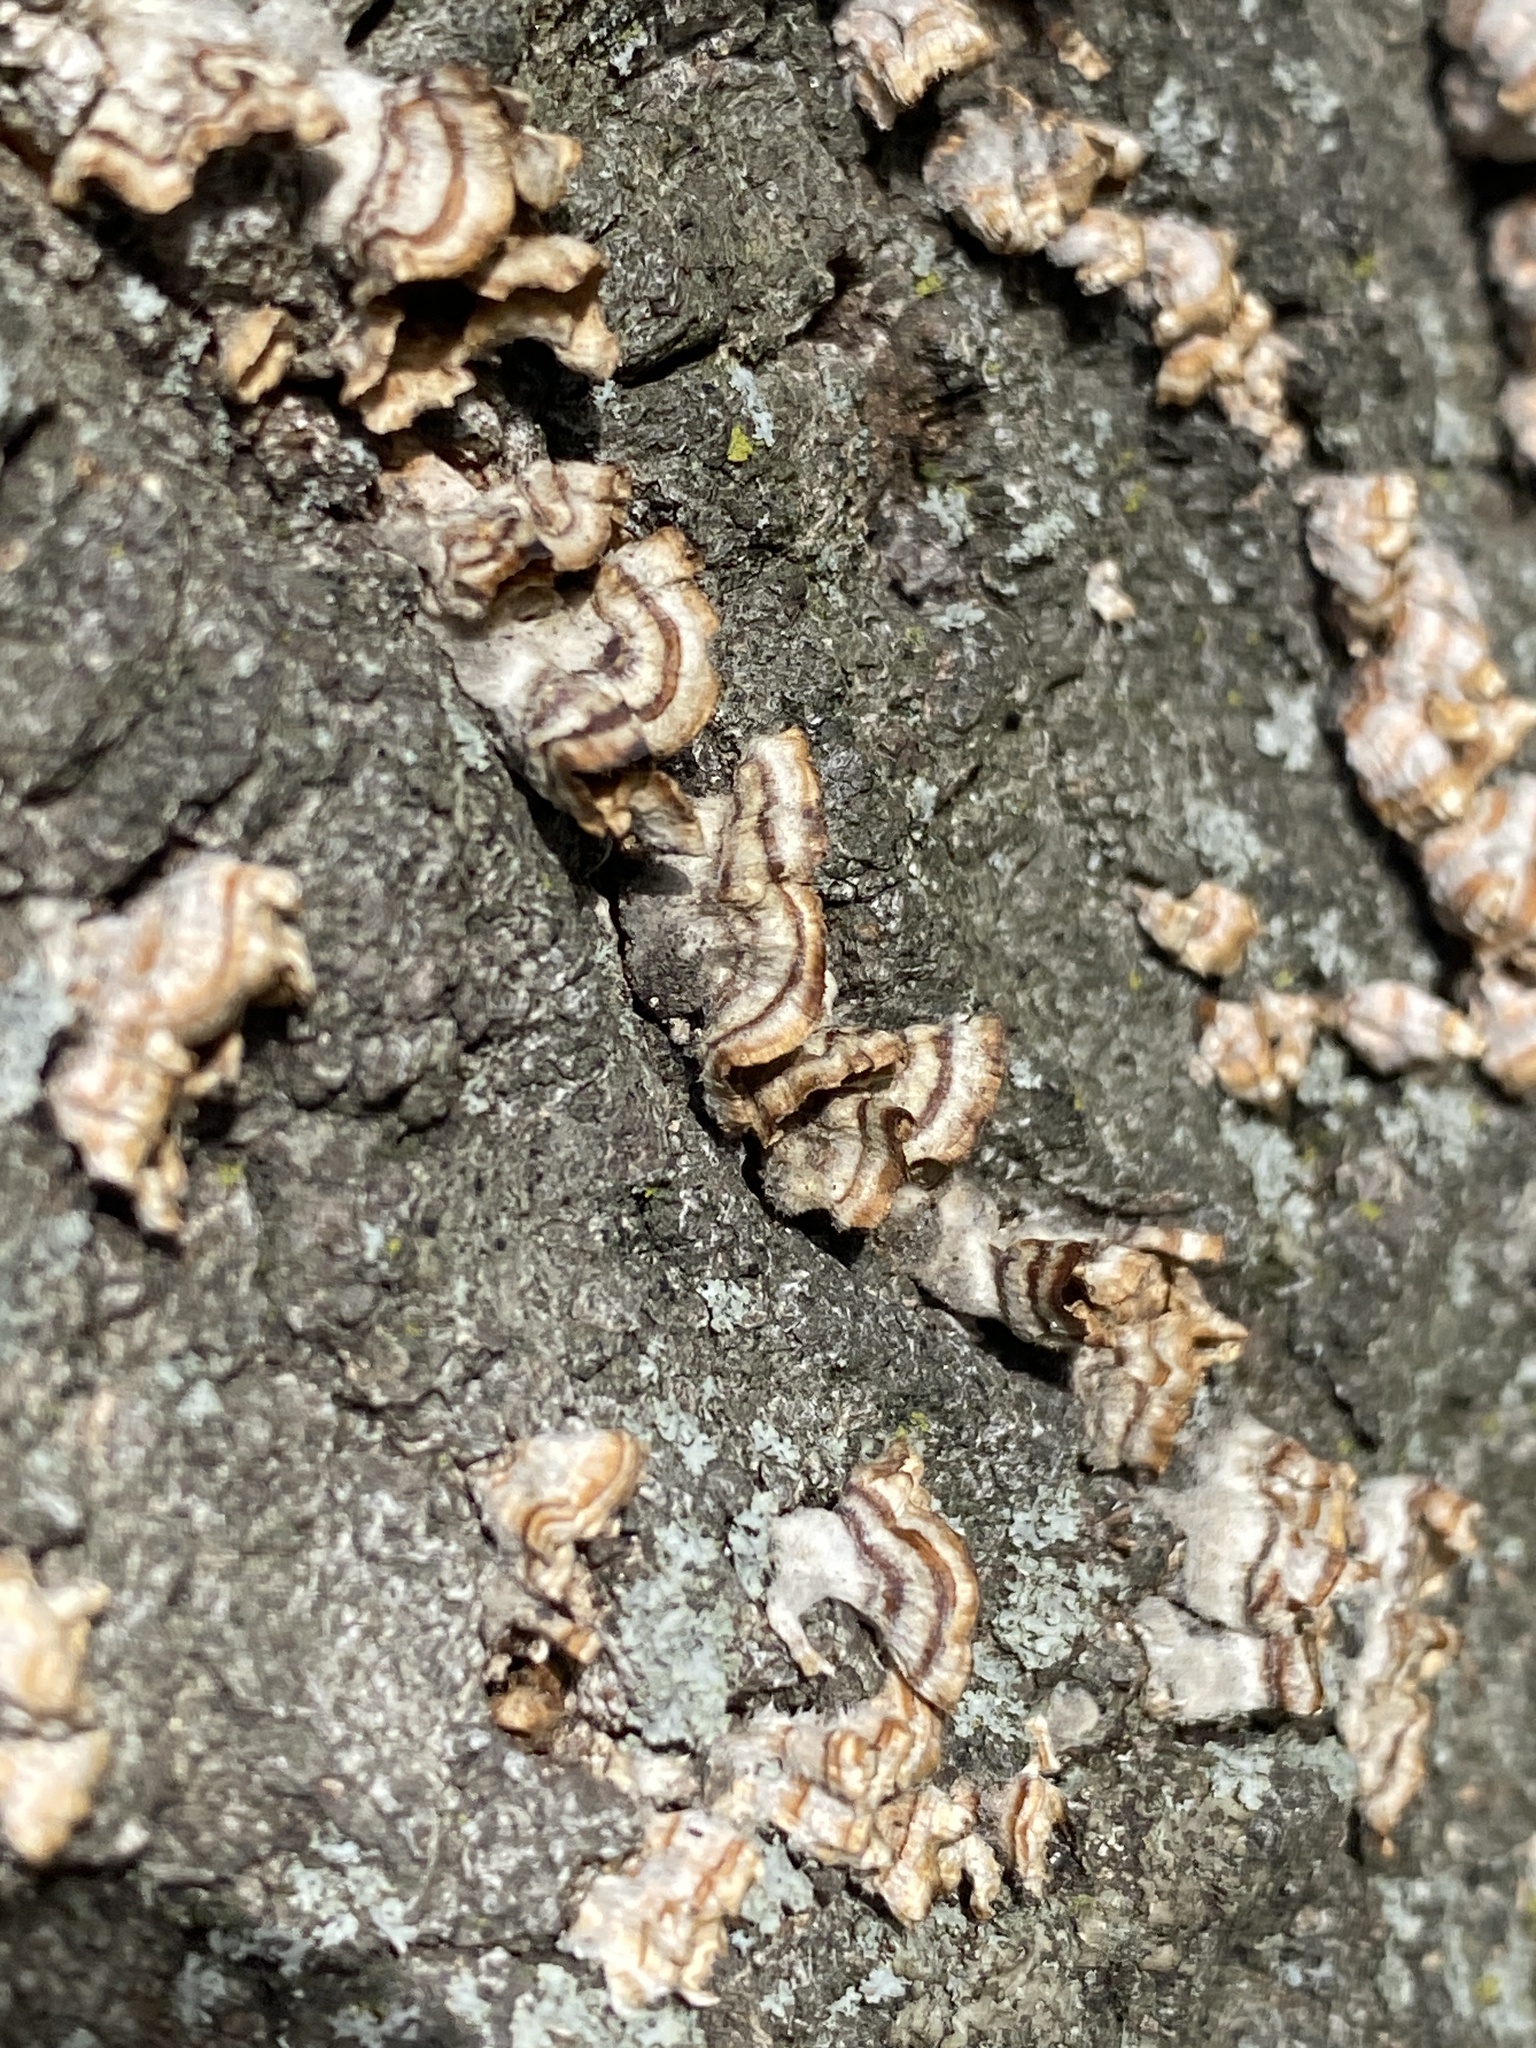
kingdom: Fungi
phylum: Basidiomycota
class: Agaricomycetes
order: Russulales
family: Stereaceae
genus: Stereum
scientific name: Stereum complicatum
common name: Crowded parchment
